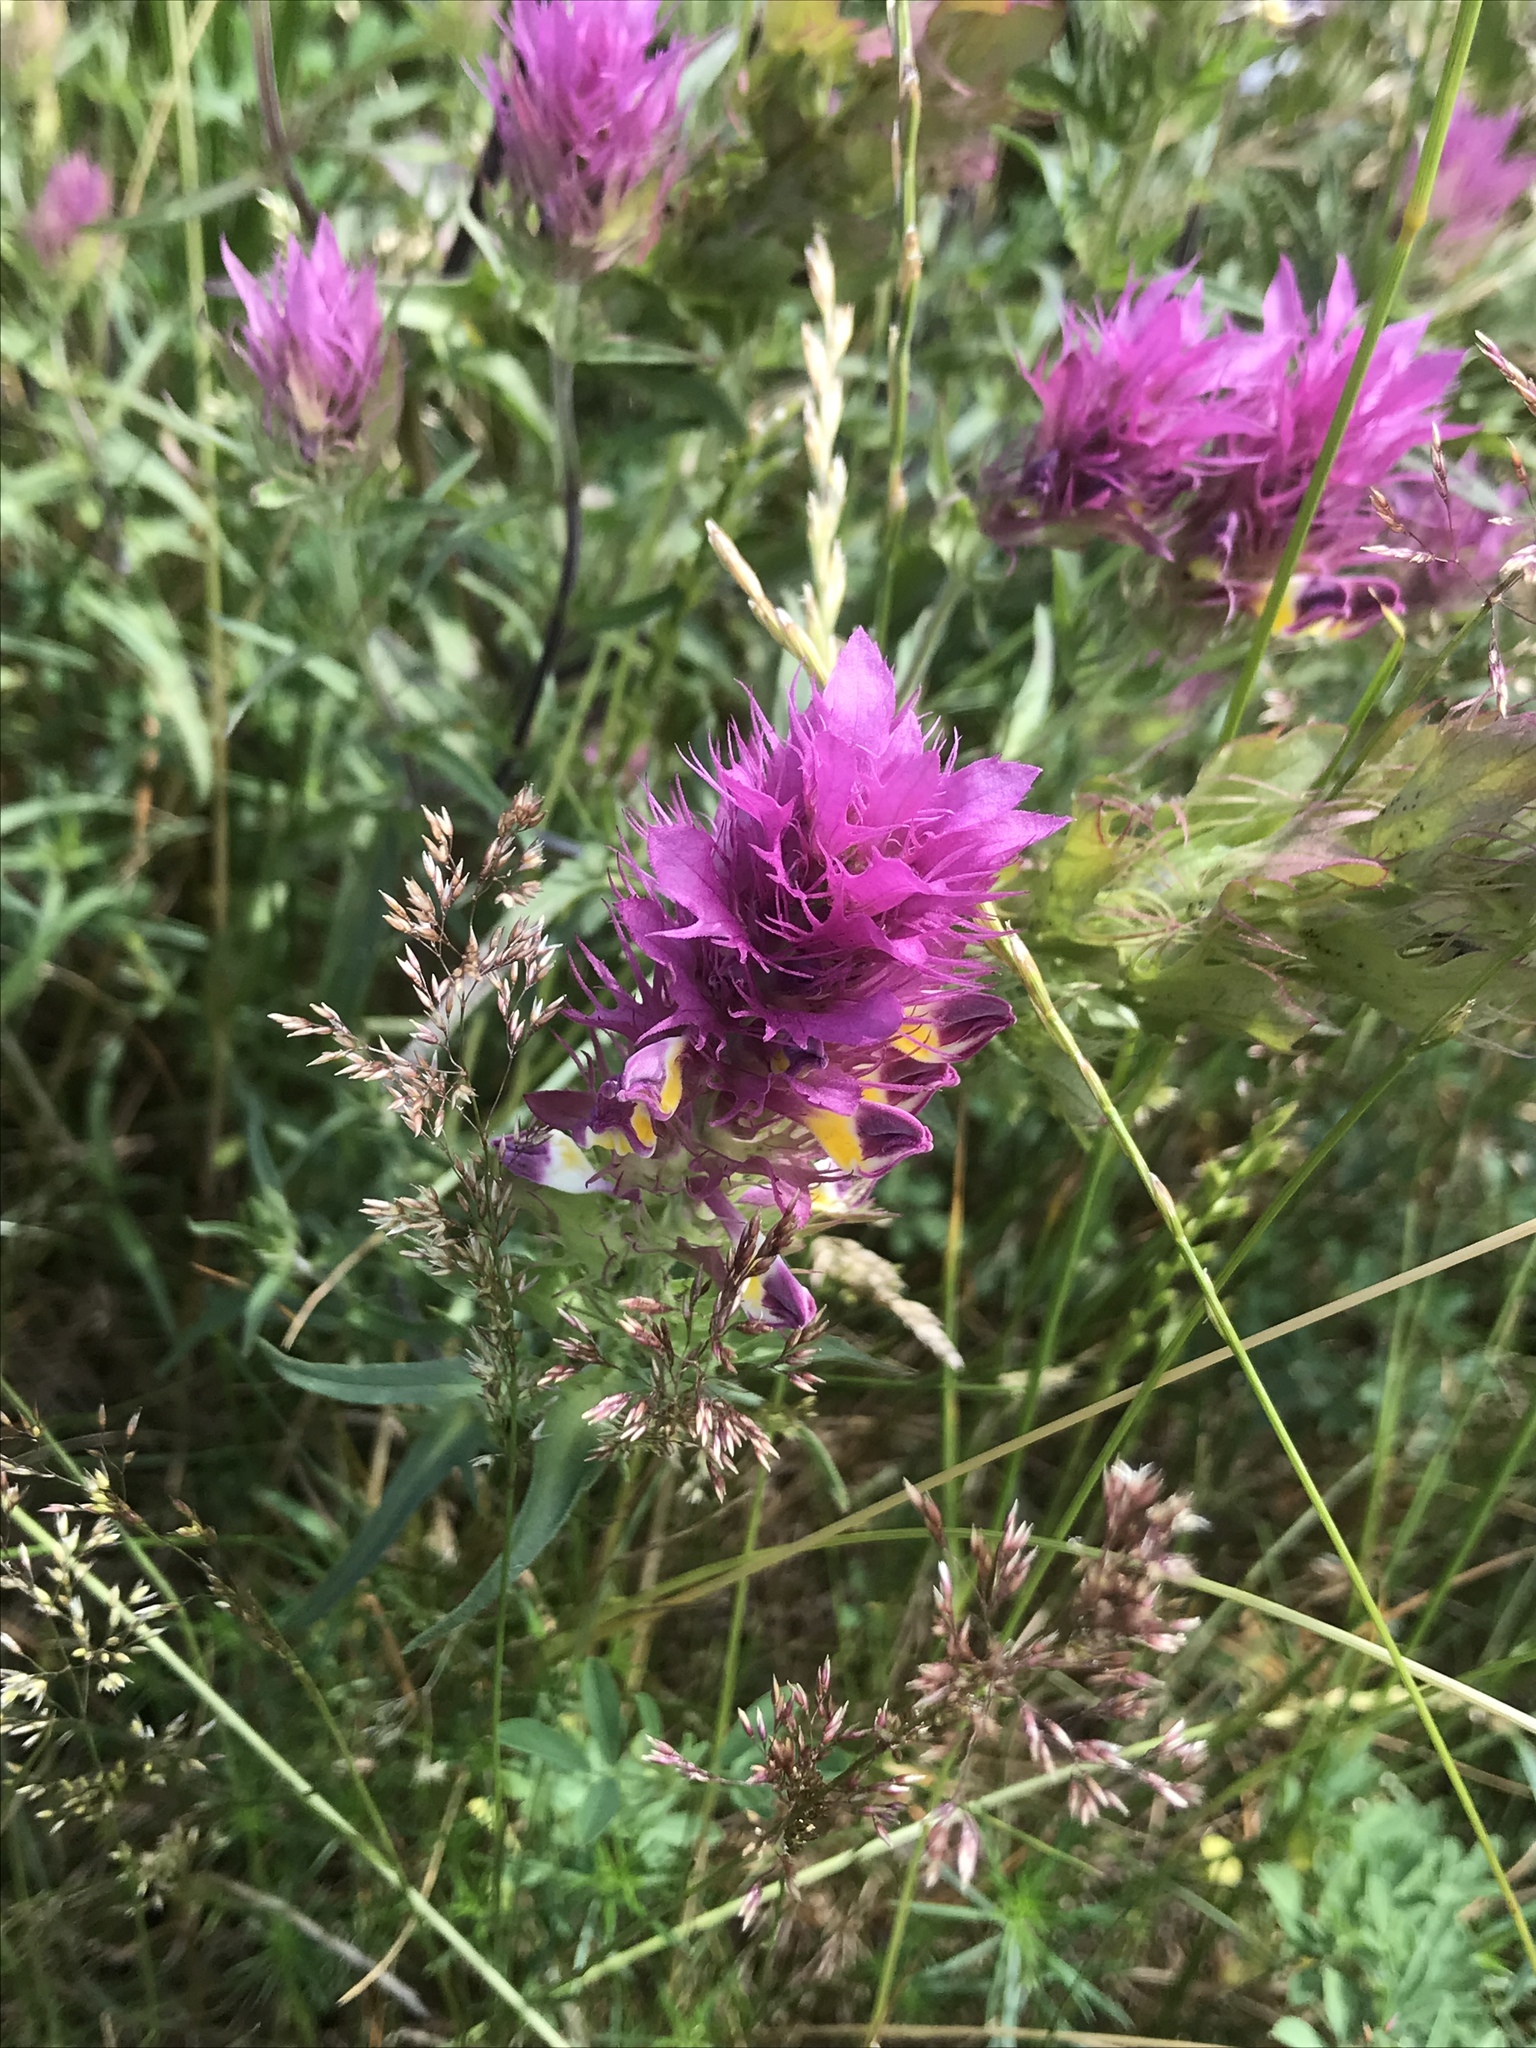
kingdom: Plantae
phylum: Tracheophyta
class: Magnoliopsida
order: Lamiales
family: Orobanchaceae
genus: Melampyrum
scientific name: Melampyrum arvense
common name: Field cow-wheat
